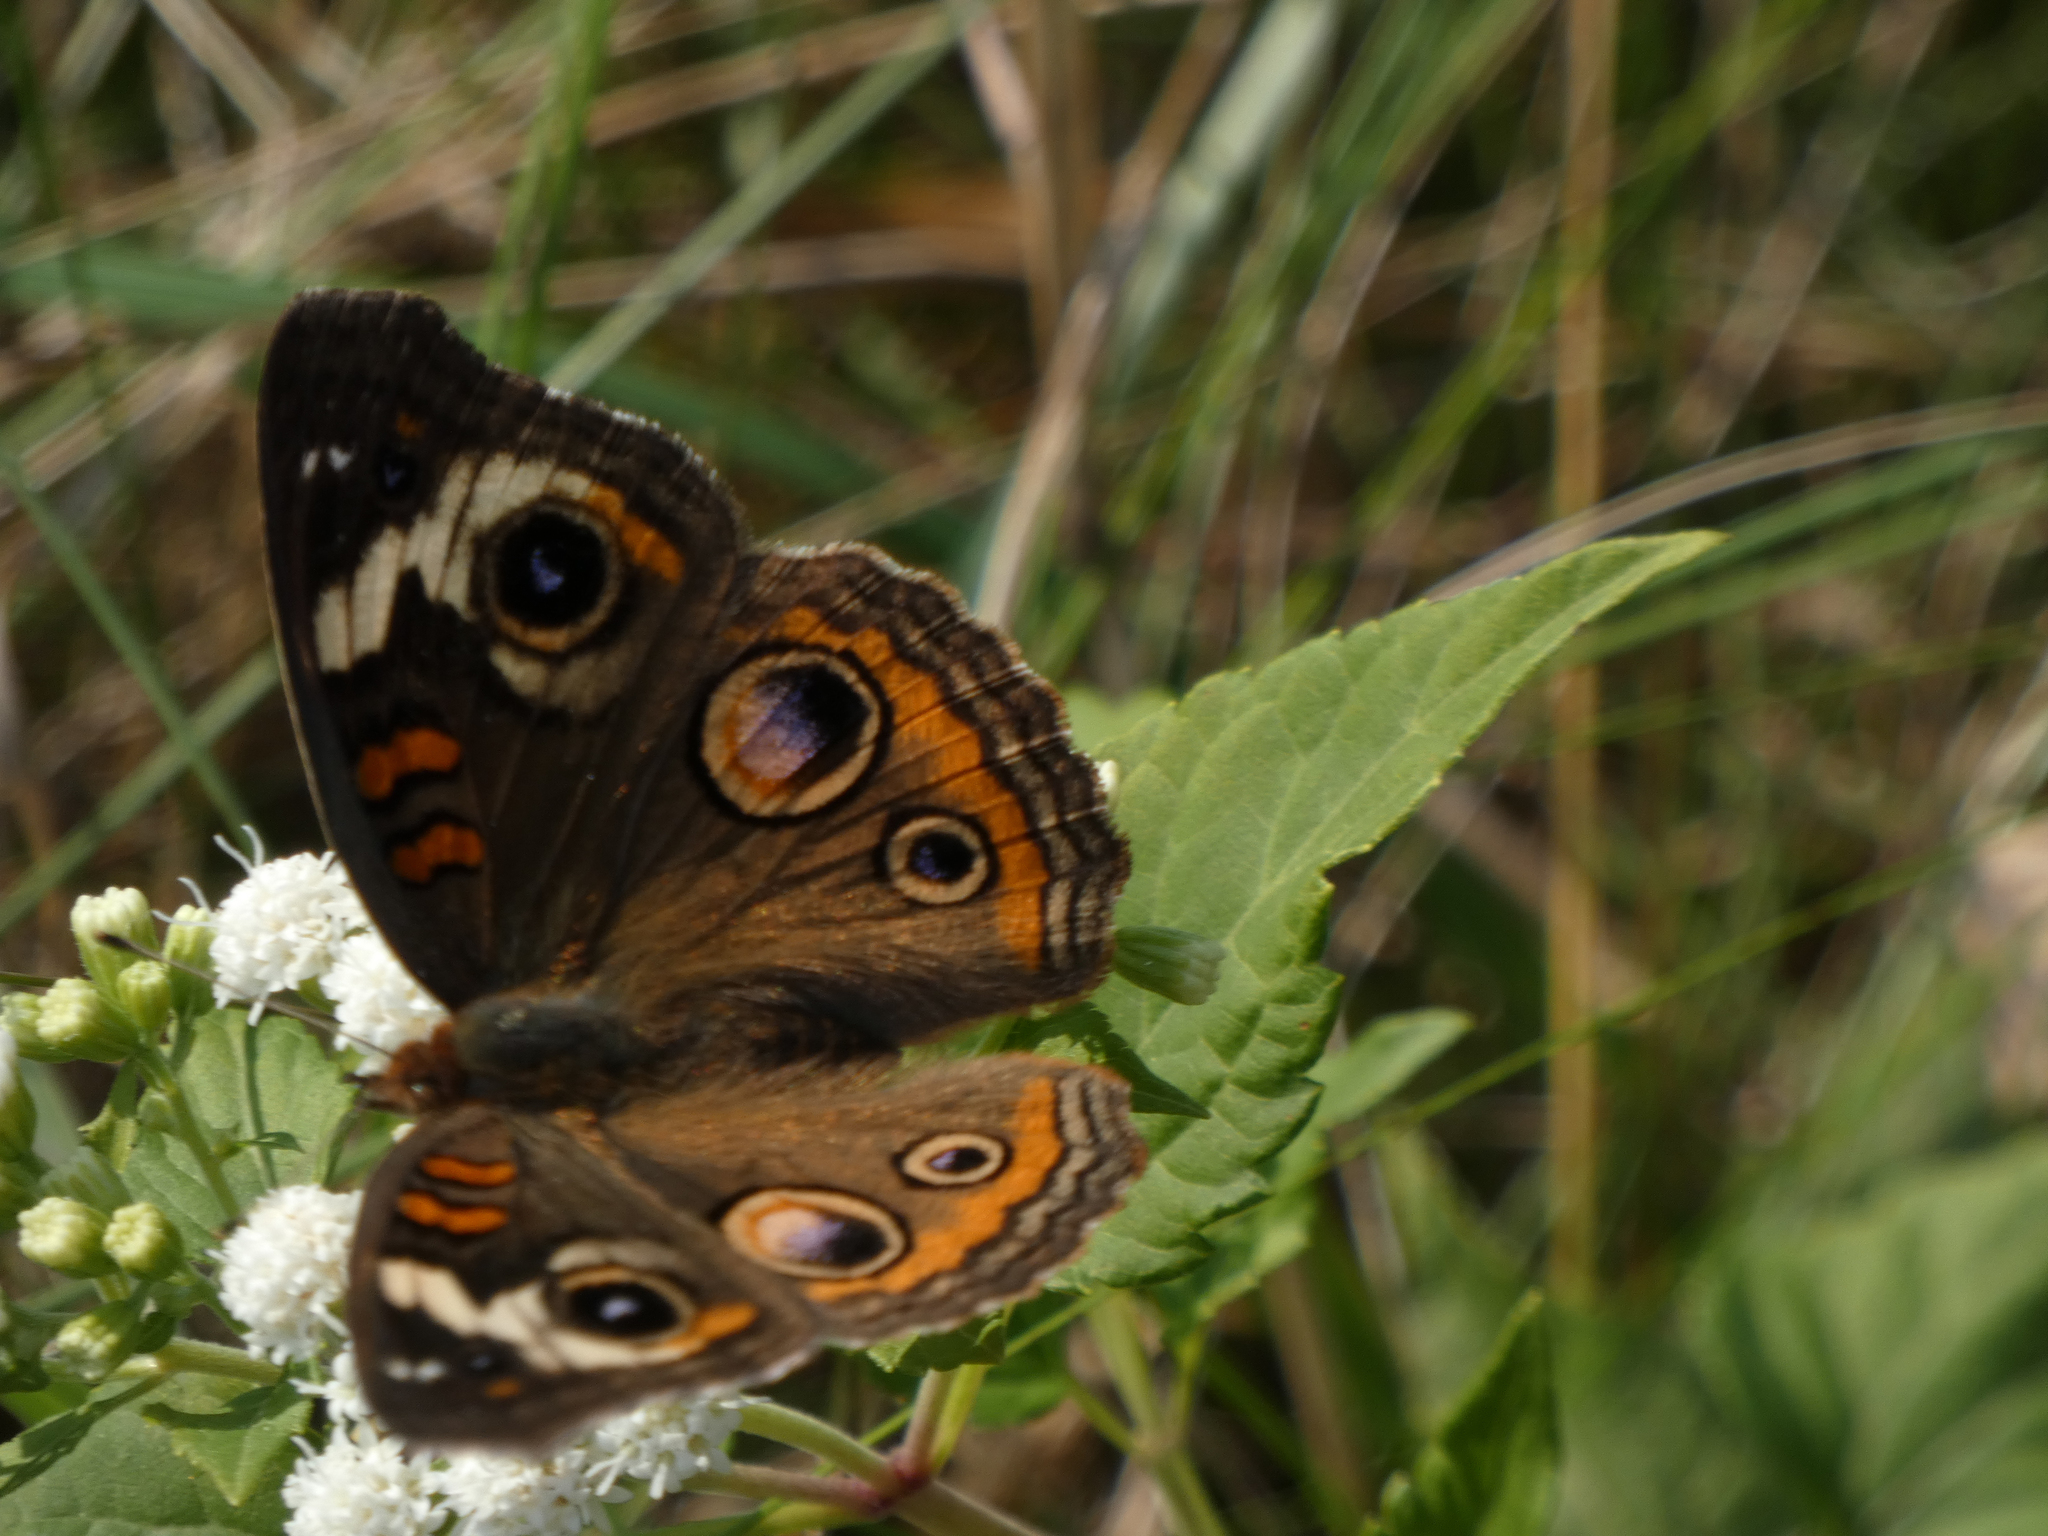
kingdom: Animalia
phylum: Arthropoda
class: Insecta
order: Lepidoptera
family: Nymphalidae
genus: Junonia
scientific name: Junonia coenia
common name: Common buckeye
